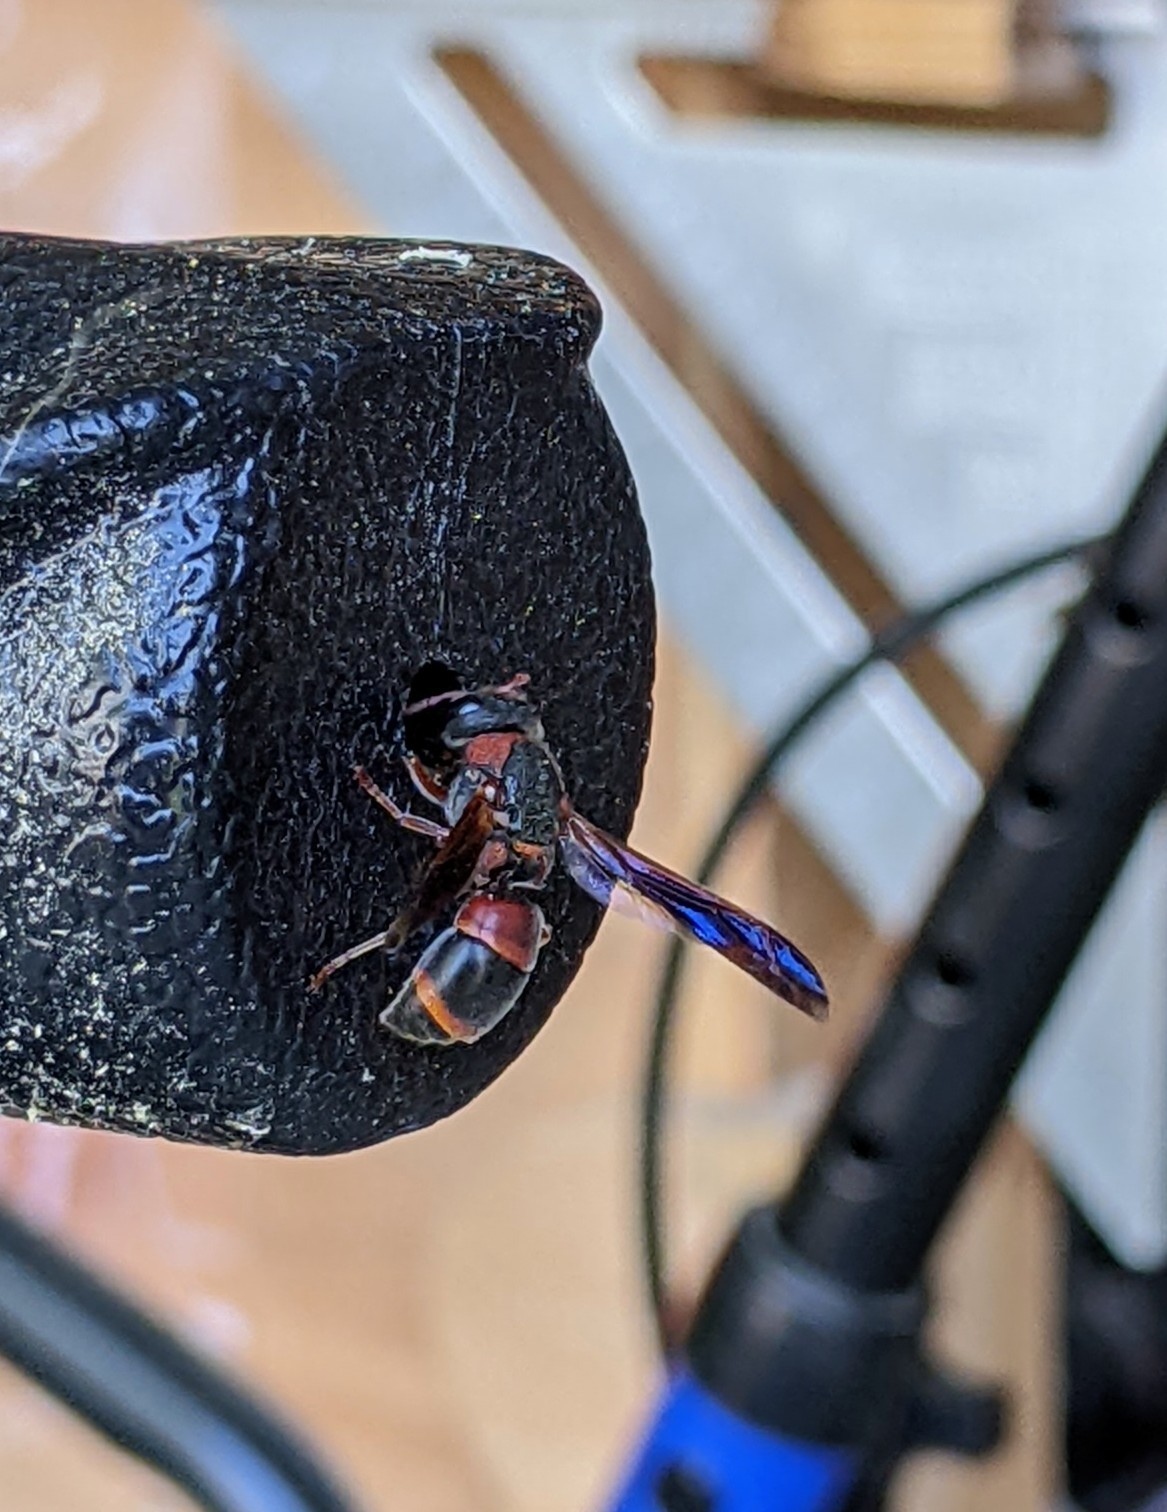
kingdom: Animalia
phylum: Arthropoda
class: Insecta
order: Hymenoptera
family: Eumenidae
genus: Pachodynerus
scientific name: Pachodynerus erynnis
